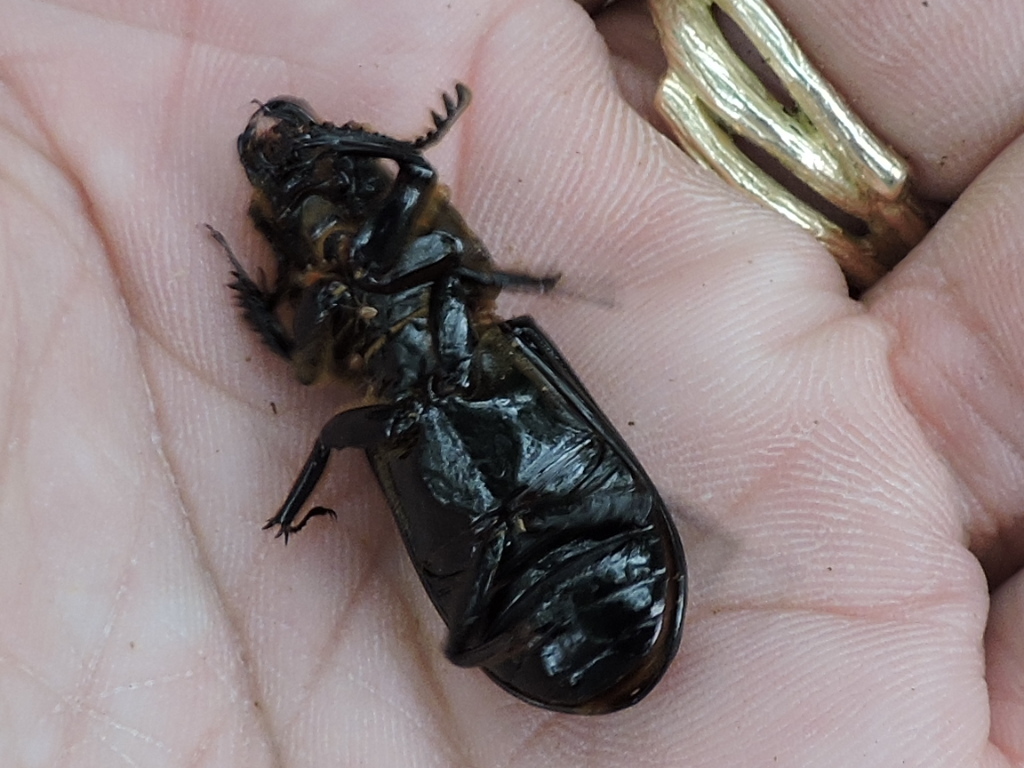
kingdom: Animalia
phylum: Arthropoda
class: Insecta
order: Coleoptera
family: Passalidae
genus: Odontotaenius
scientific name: Odontotaenius disjunctus
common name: Patent leather beetle
